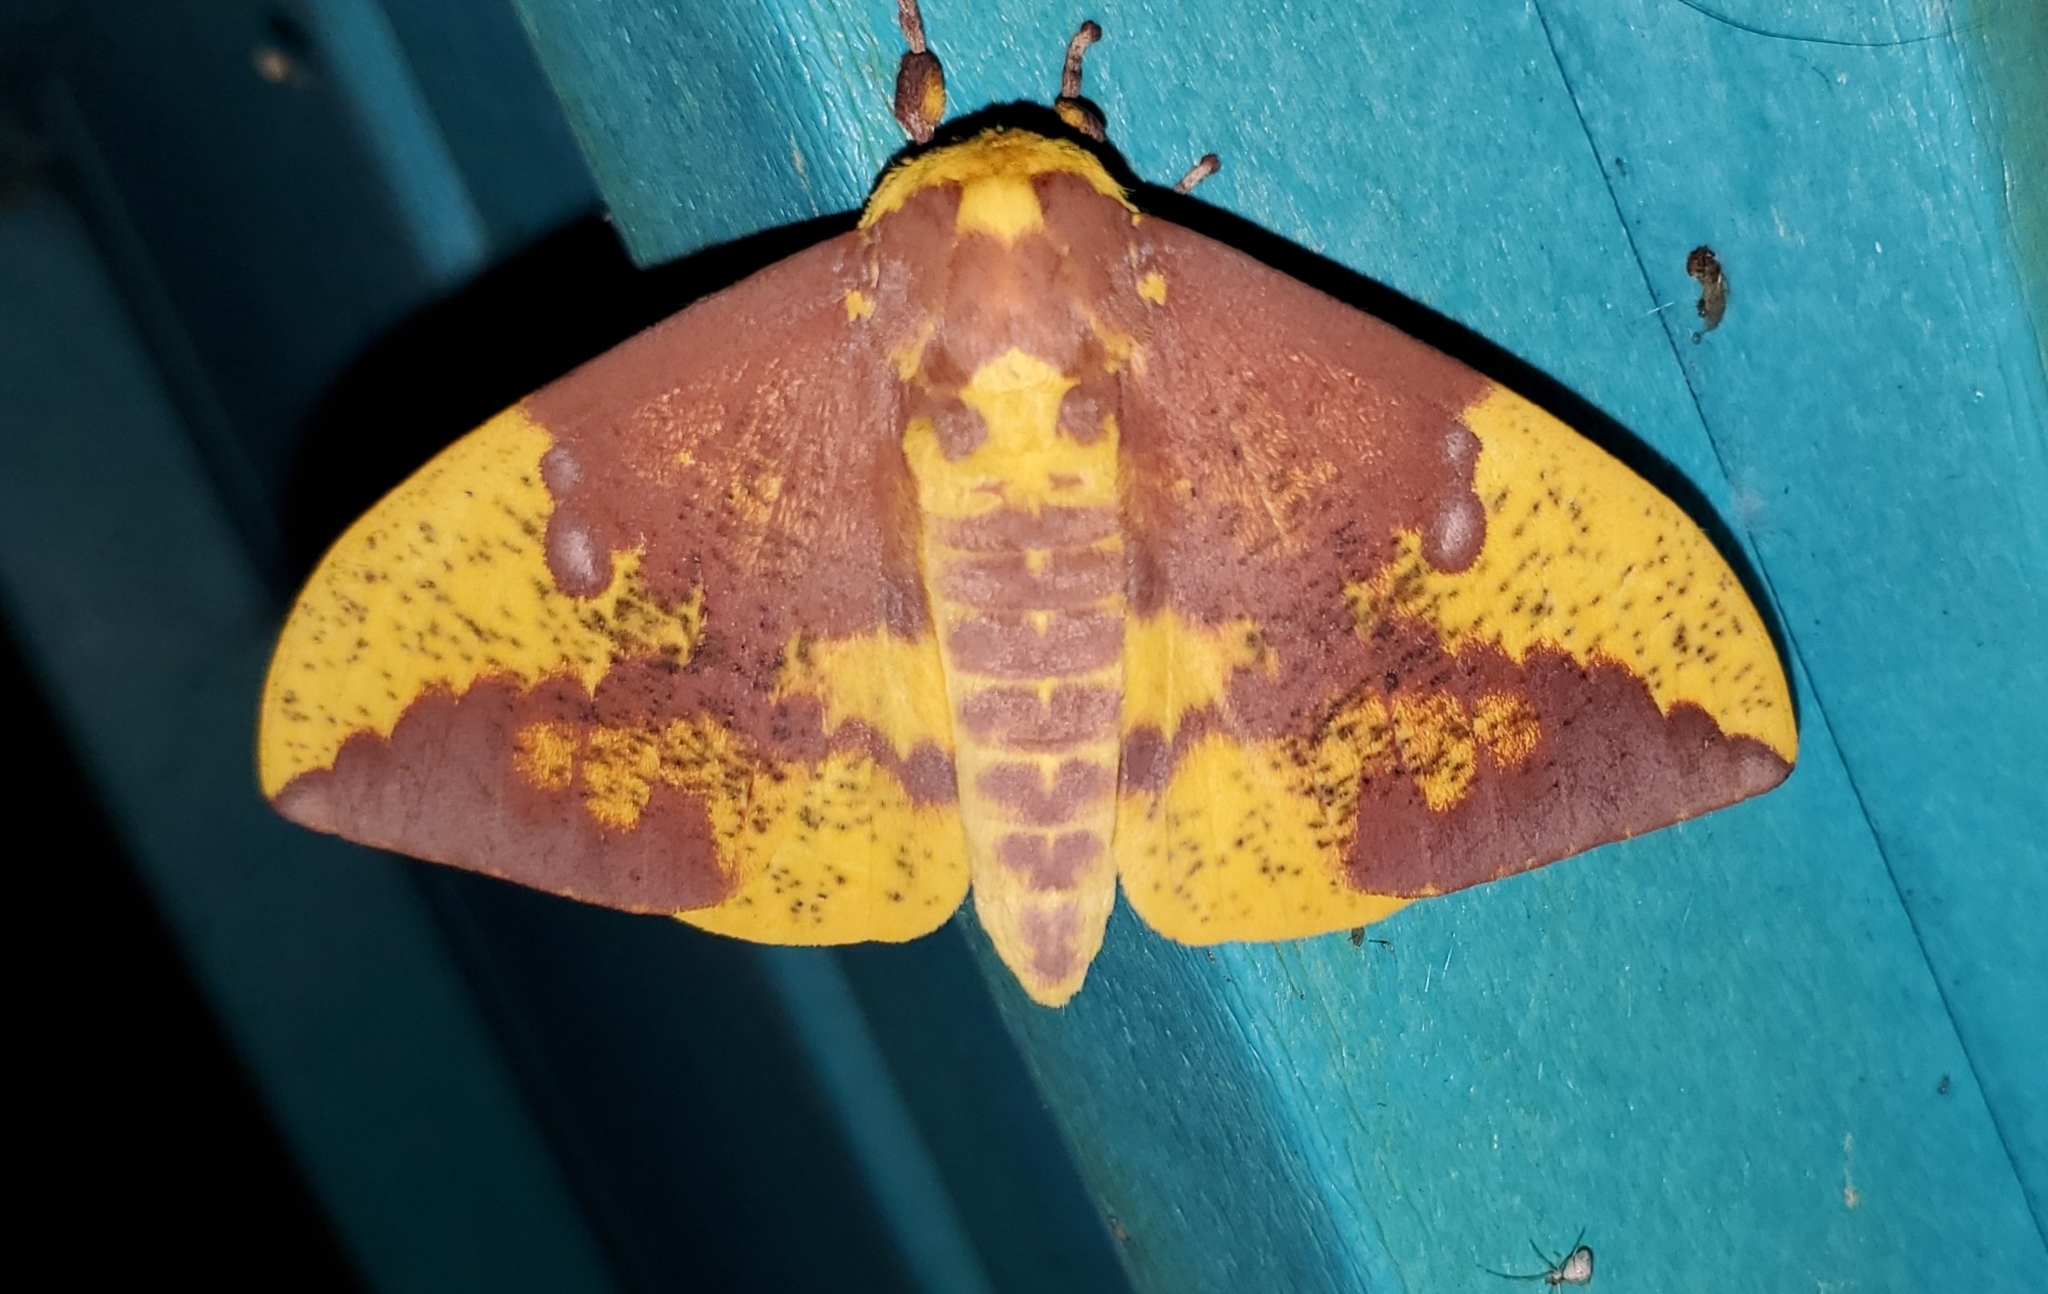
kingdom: Animalia
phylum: Arthropoda
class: Insecta
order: Lepidoptera
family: Saturniidae
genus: Eacles
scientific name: Eacles imperialis
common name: Imperial moth
